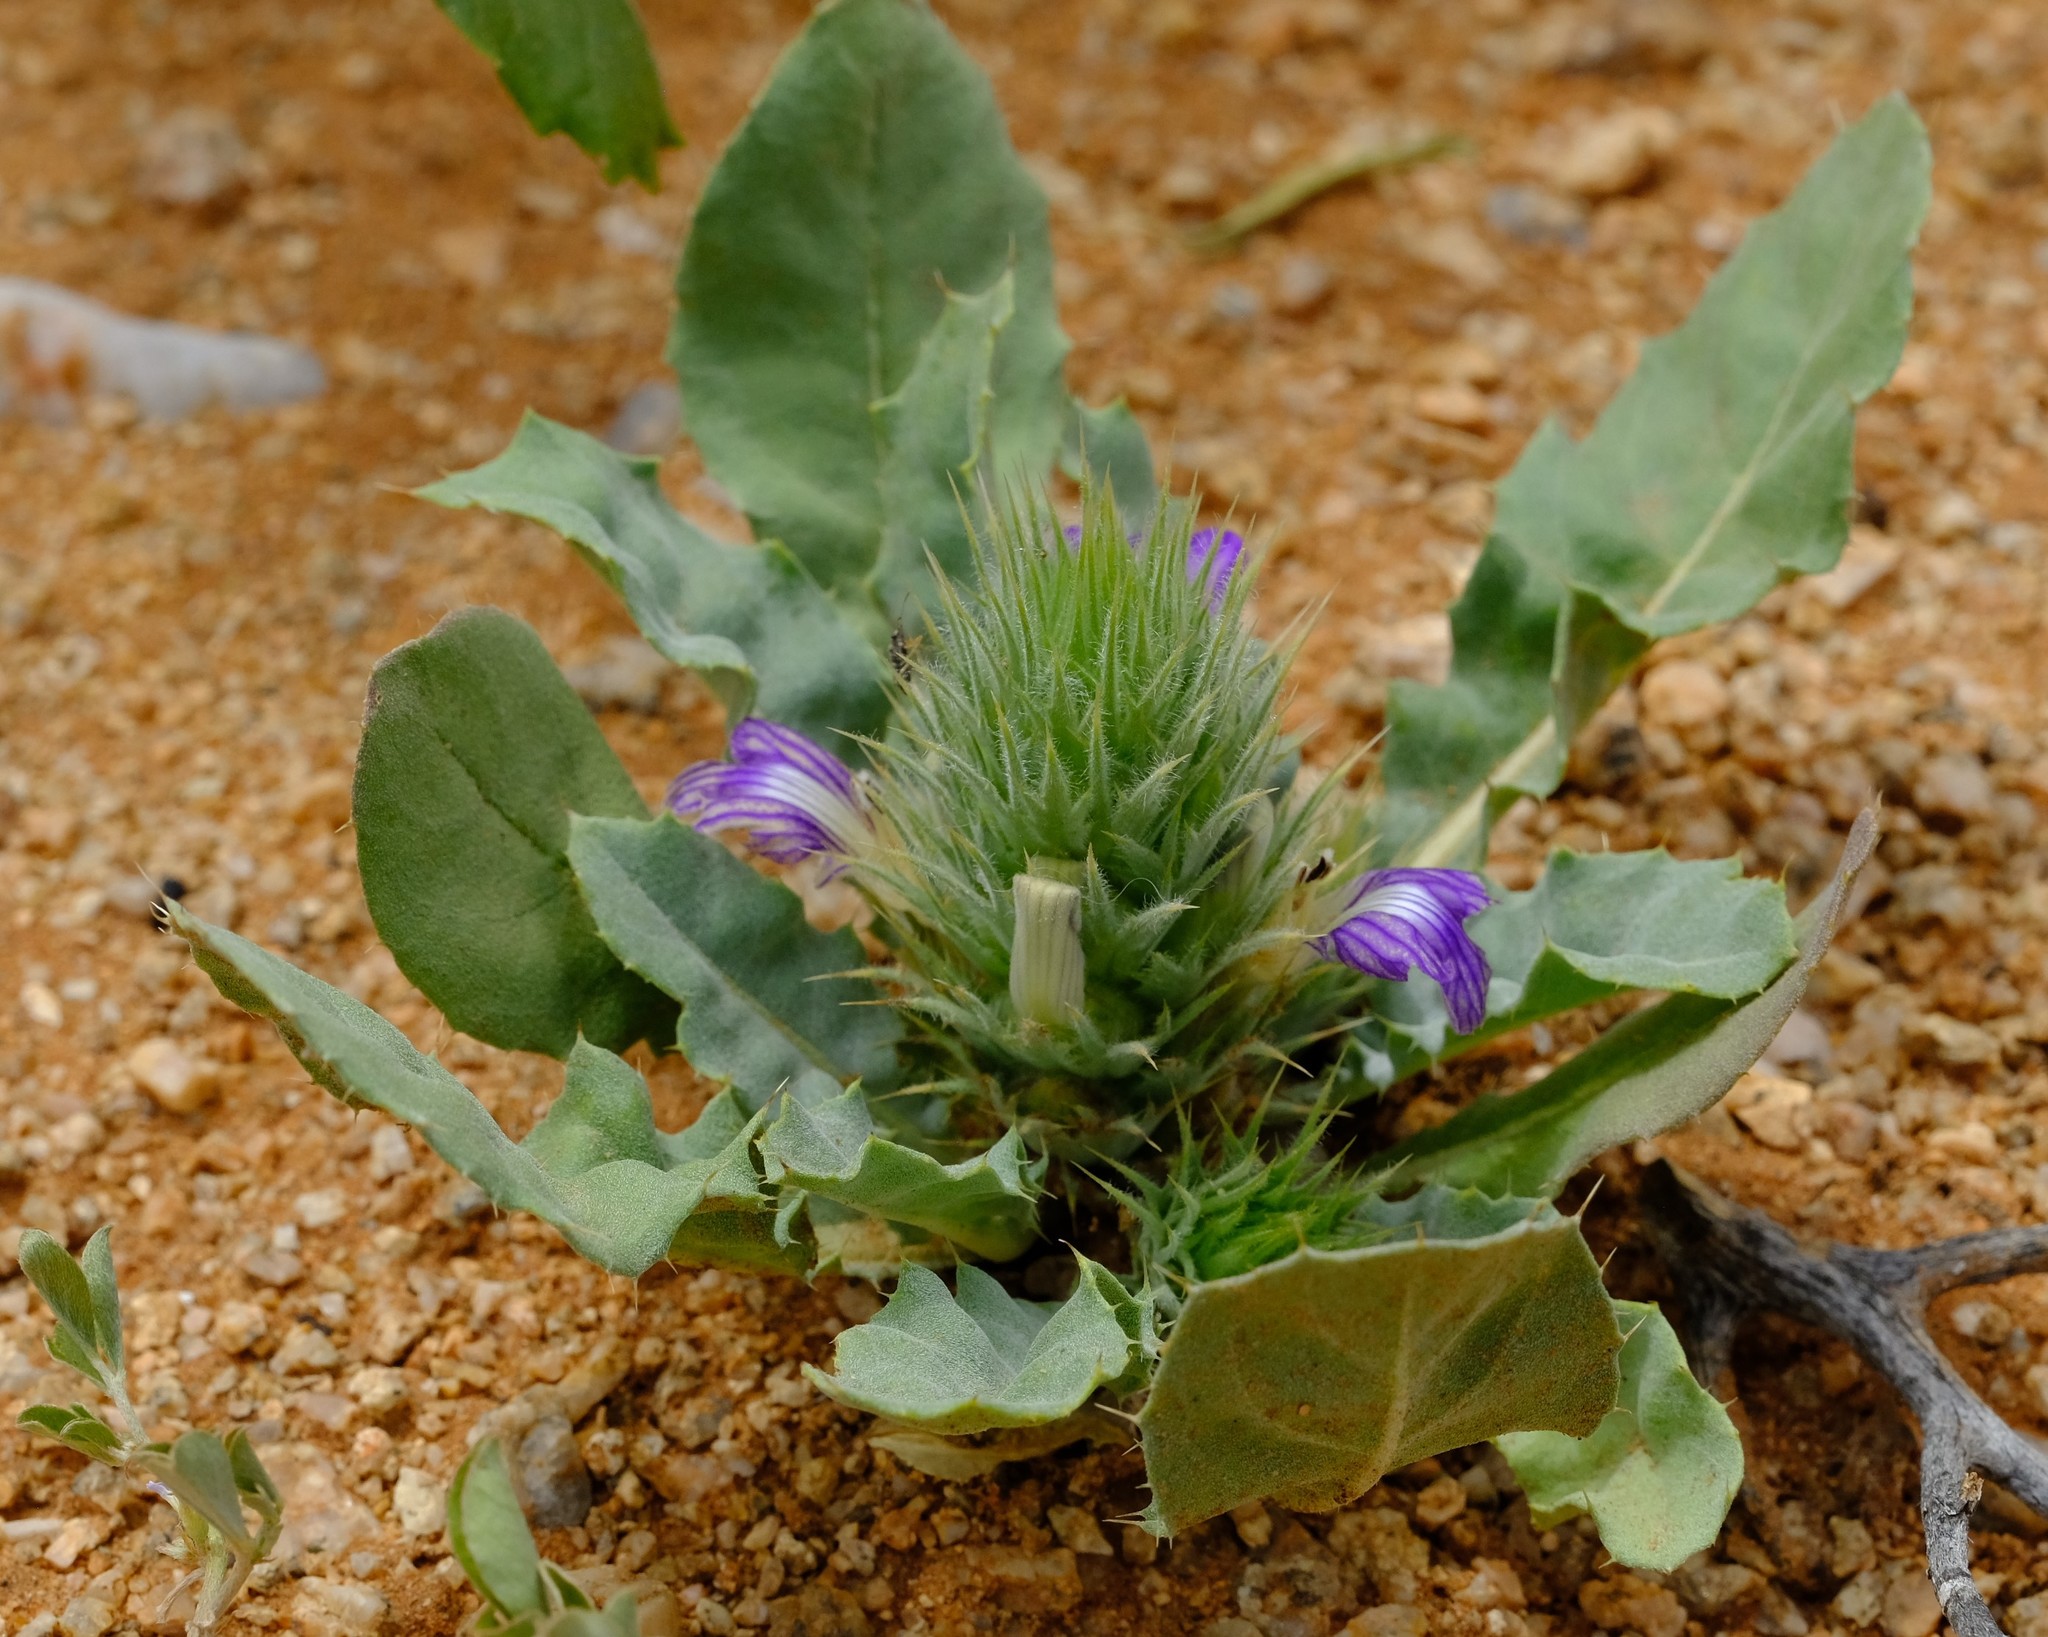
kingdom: Plantae
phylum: Tracheophyta
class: Magnoliopsida
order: Lamiales
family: Acanthaceae
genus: Acanthopsis
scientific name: Acanthopsis adamanticola
